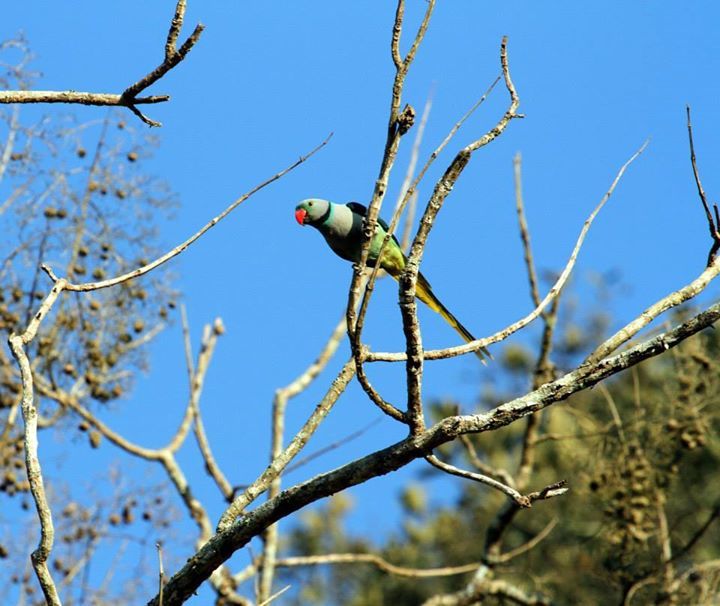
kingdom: Animalia
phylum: Chordata
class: Aves
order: Psittaciformes
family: Psittacidae
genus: Psittacula
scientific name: Psittacula columboides
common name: Blue-winged parakeet
